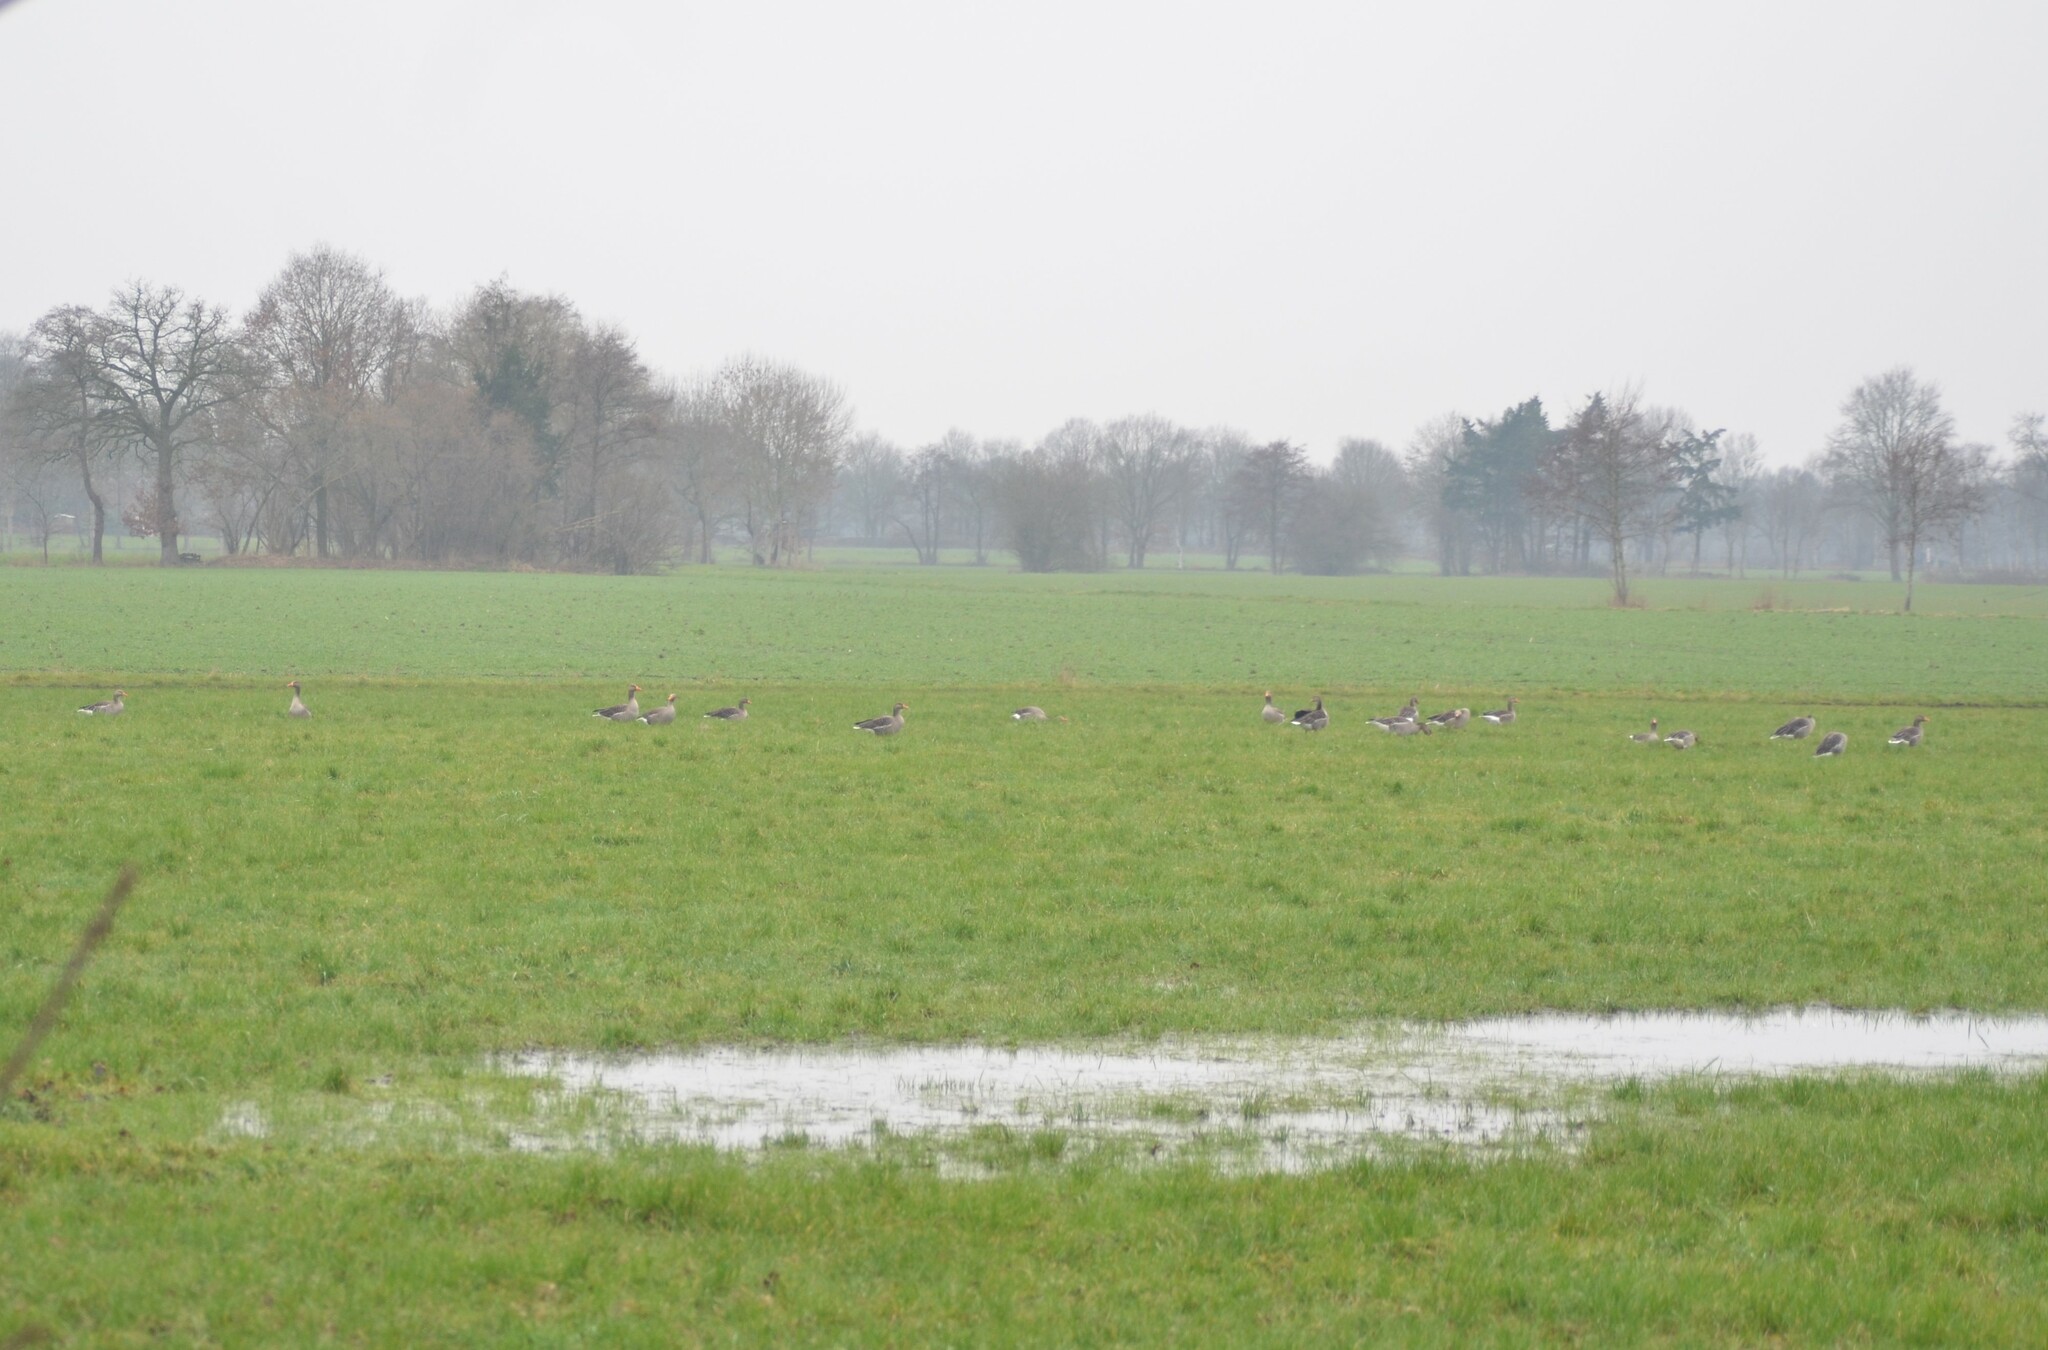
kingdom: Animalia
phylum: Chordata
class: Aves
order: Anseriformes
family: Anatidae
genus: Anser
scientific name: Anser anser
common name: Greylag goose
